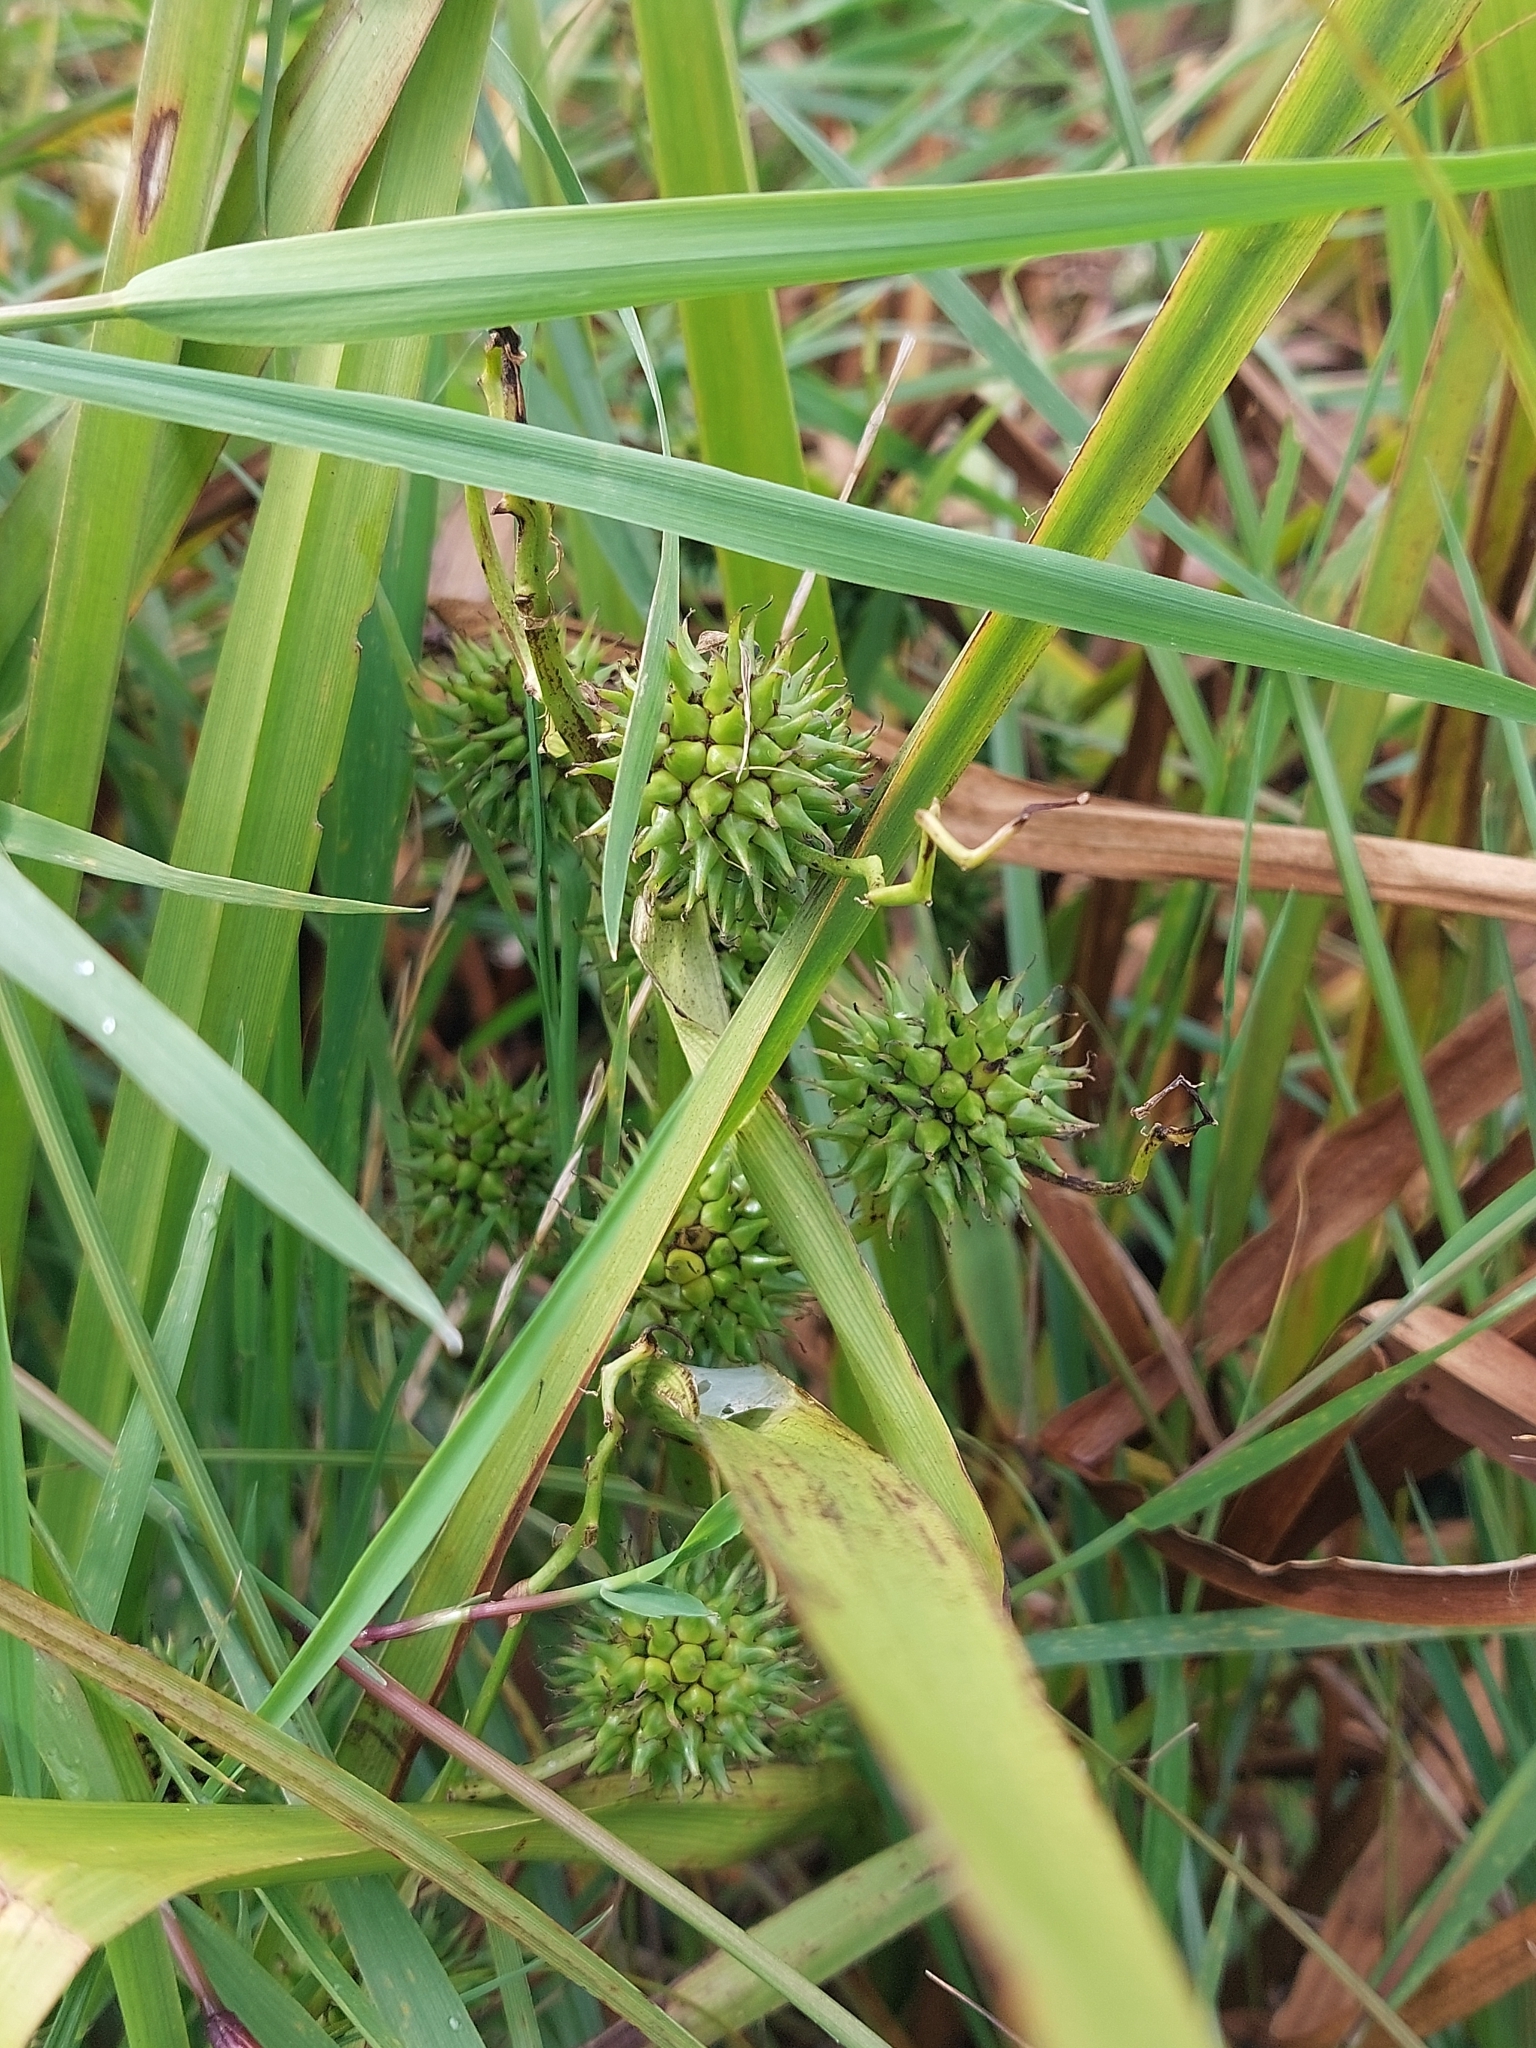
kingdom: Plantae
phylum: Tracheophyta
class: Liliopsida
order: Poales
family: Typhaceae
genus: Sparganium
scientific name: Sparganium erectum
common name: Branched bur-reed
